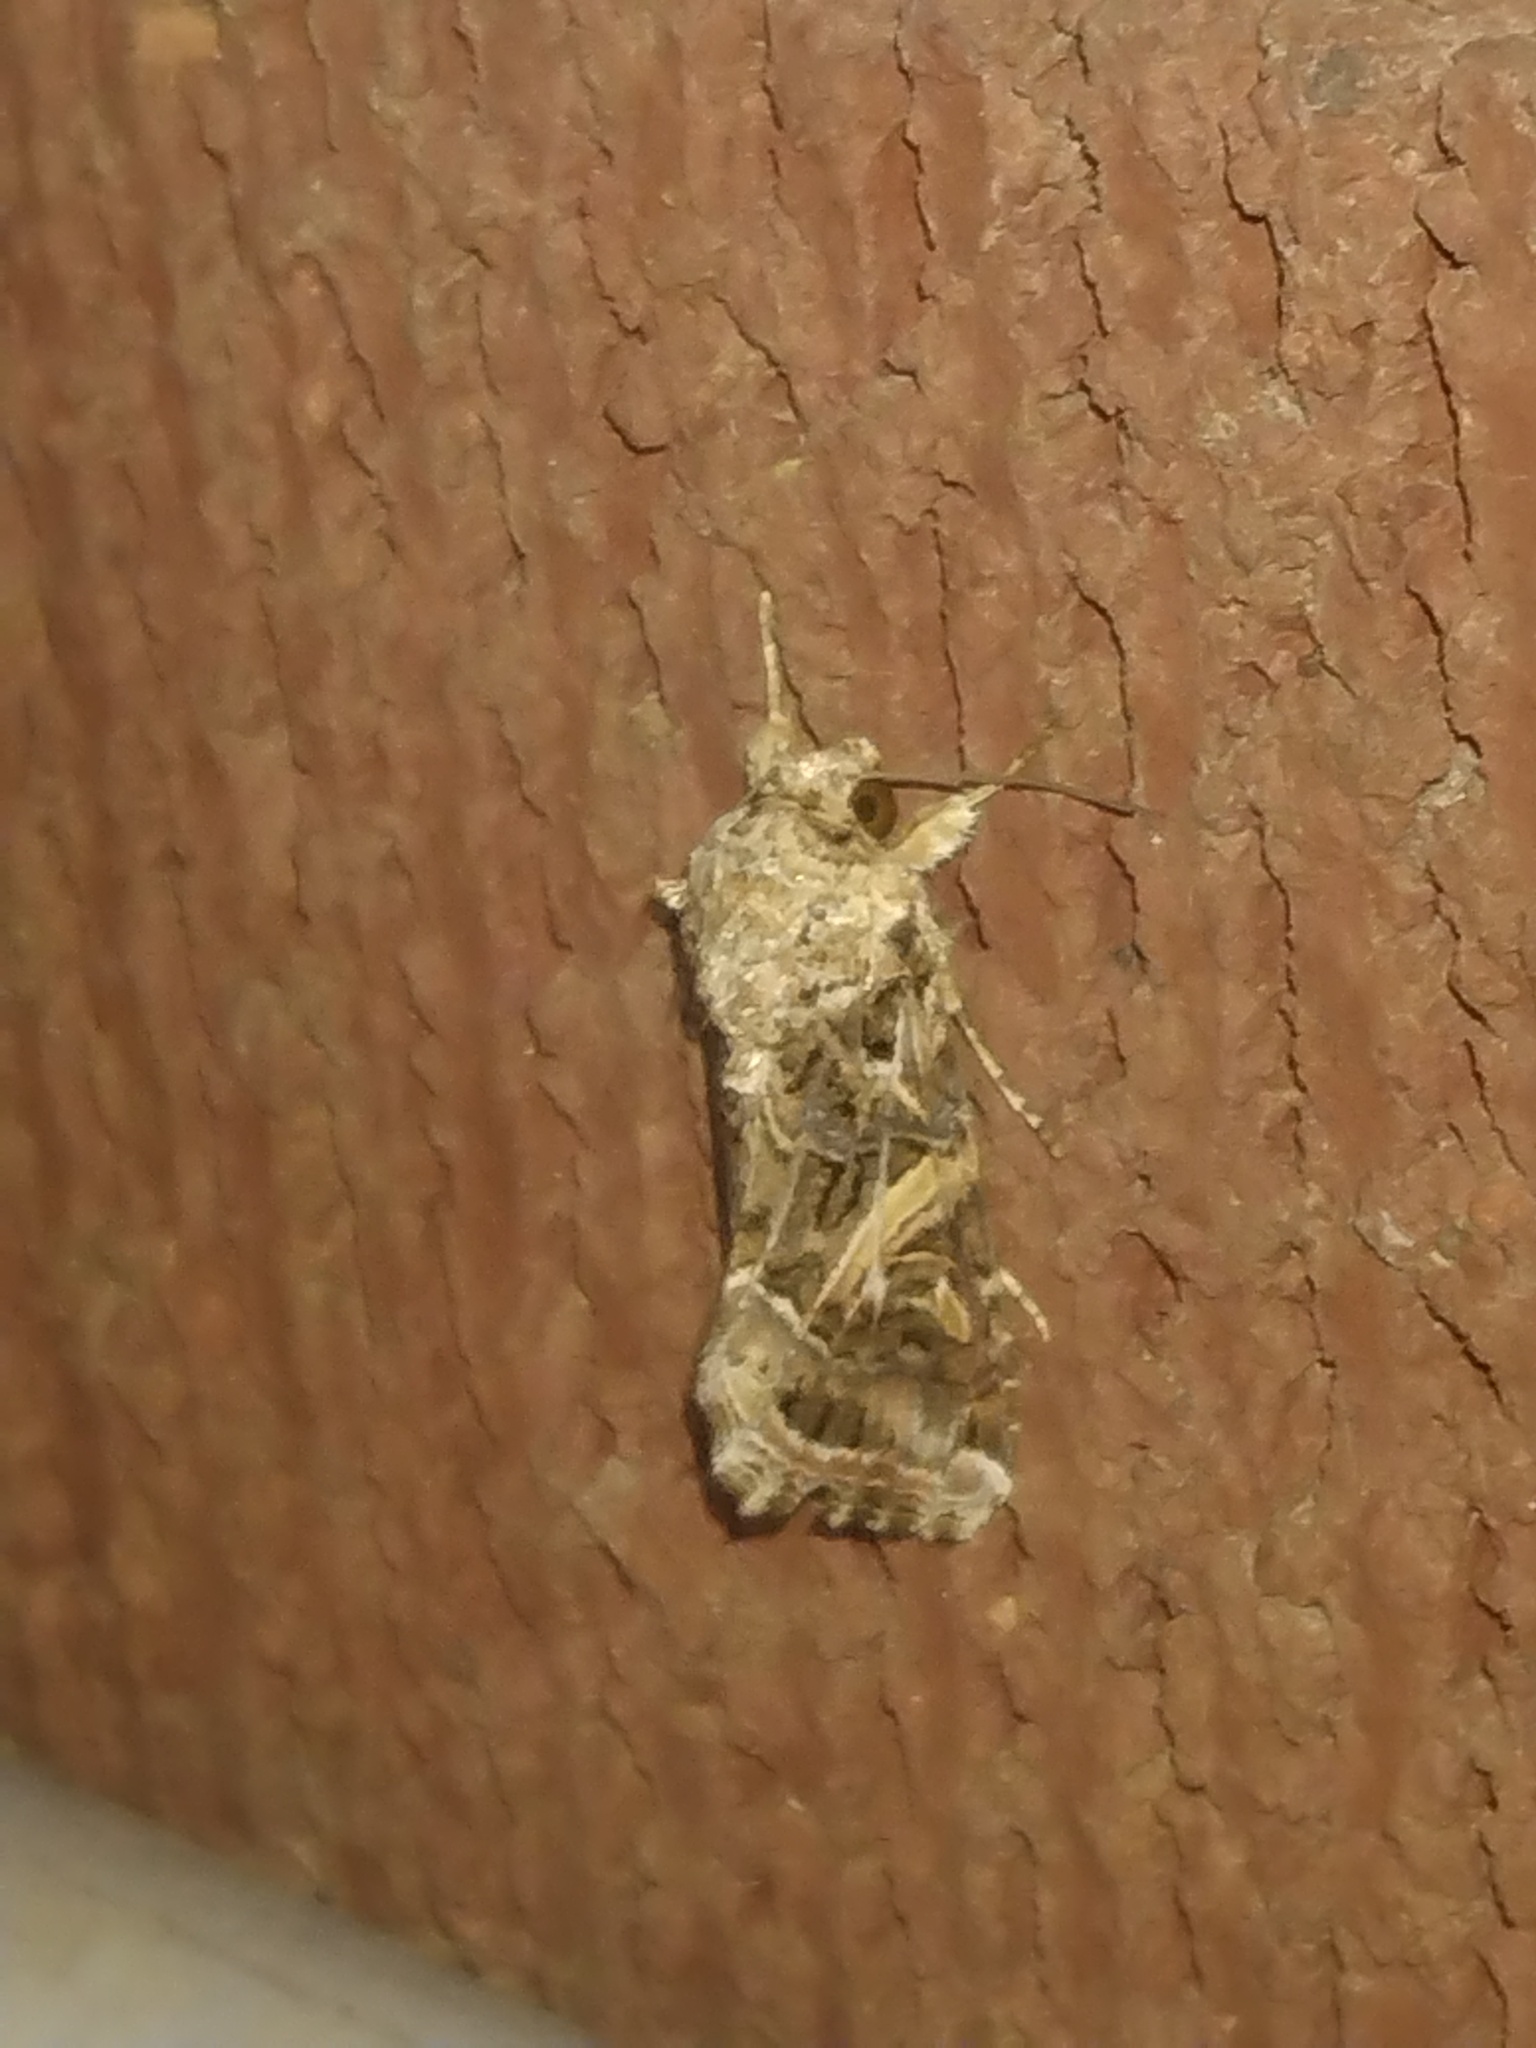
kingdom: Animalia
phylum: Arthropoda
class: Insecta
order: Lepidoptera
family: Noctuidae
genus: Spodoptera
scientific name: Spodoptera ornithogalli
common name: Yellow-striped armyworm
